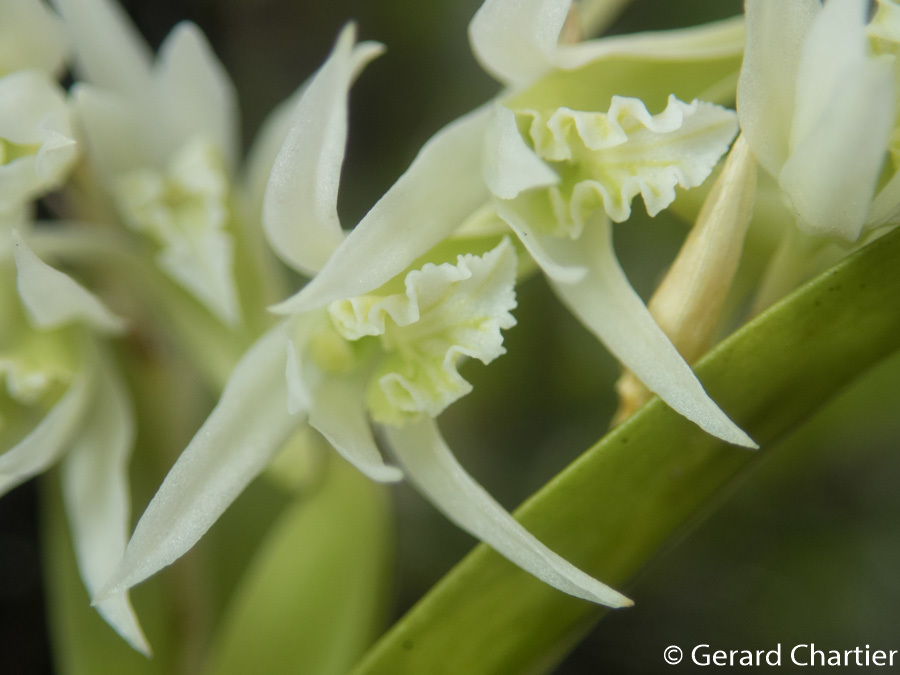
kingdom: Plantae
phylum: Tracheophyta
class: Liliopsida
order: Asparagales
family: Orchidaceae
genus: Dendrobium
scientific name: Dendrobium kratense
